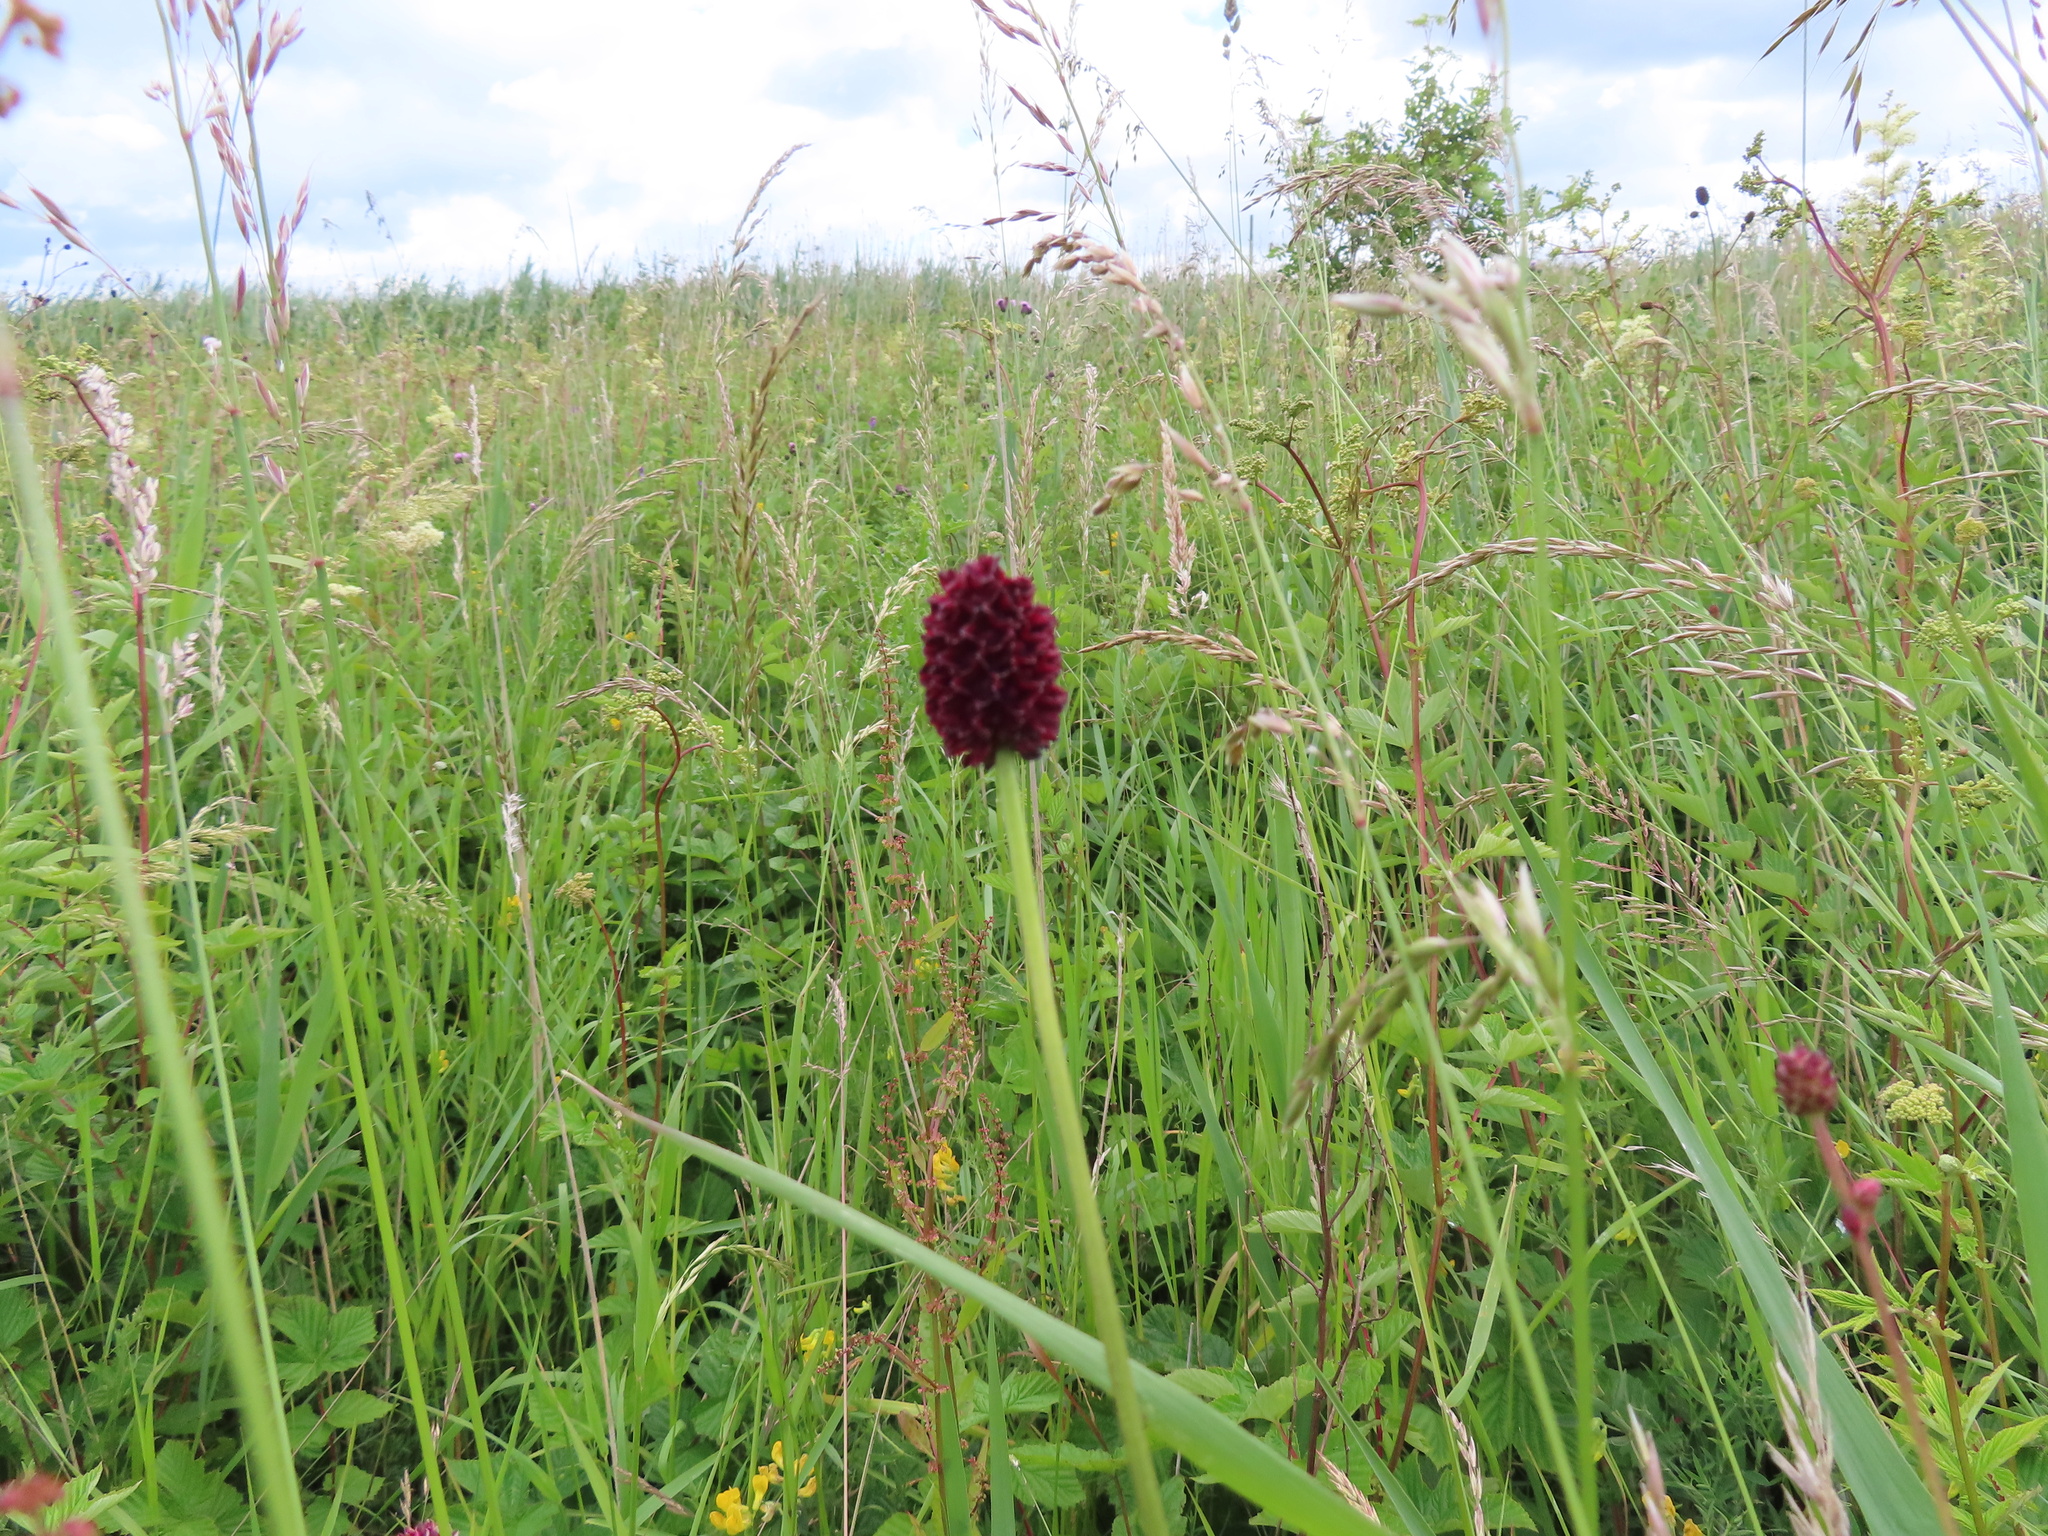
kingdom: Plantae
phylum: Tracheophyta
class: Magnoliopsida
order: Rosales
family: Rosaceae
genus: Sanguisorba
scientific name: Sanguisorba officinalis
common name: Great burnet
